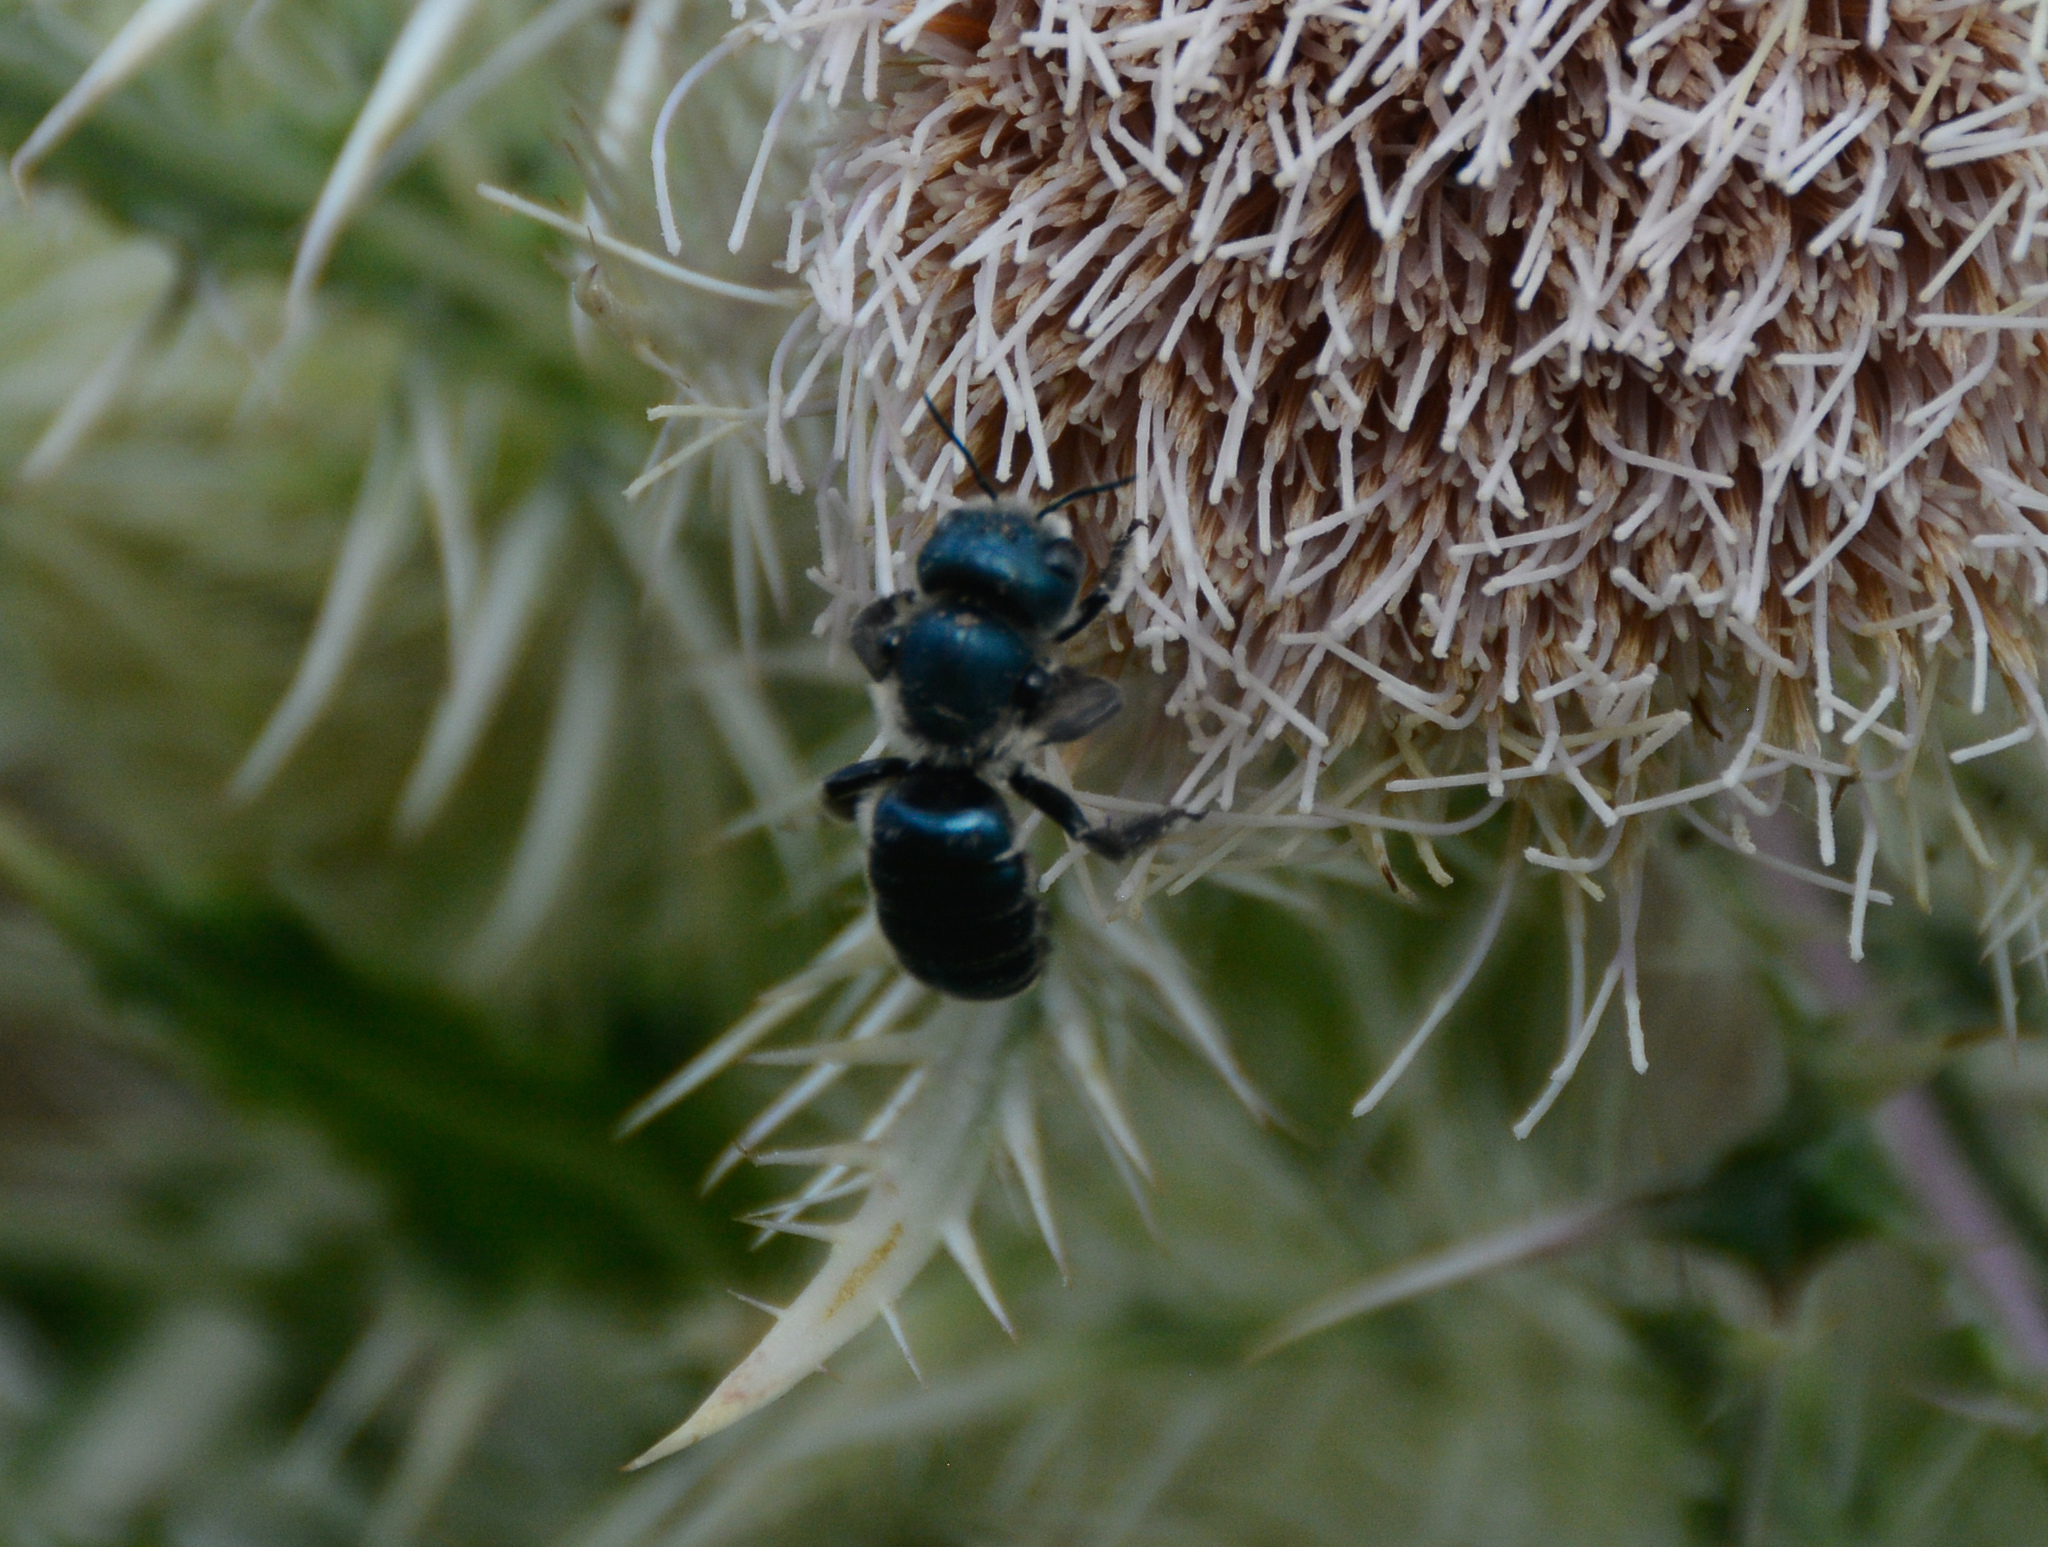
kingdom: Animalia
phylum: Arthropoda
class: Insecta
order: Hymenoptera
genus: Helicosmia
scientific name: Helicosmia
